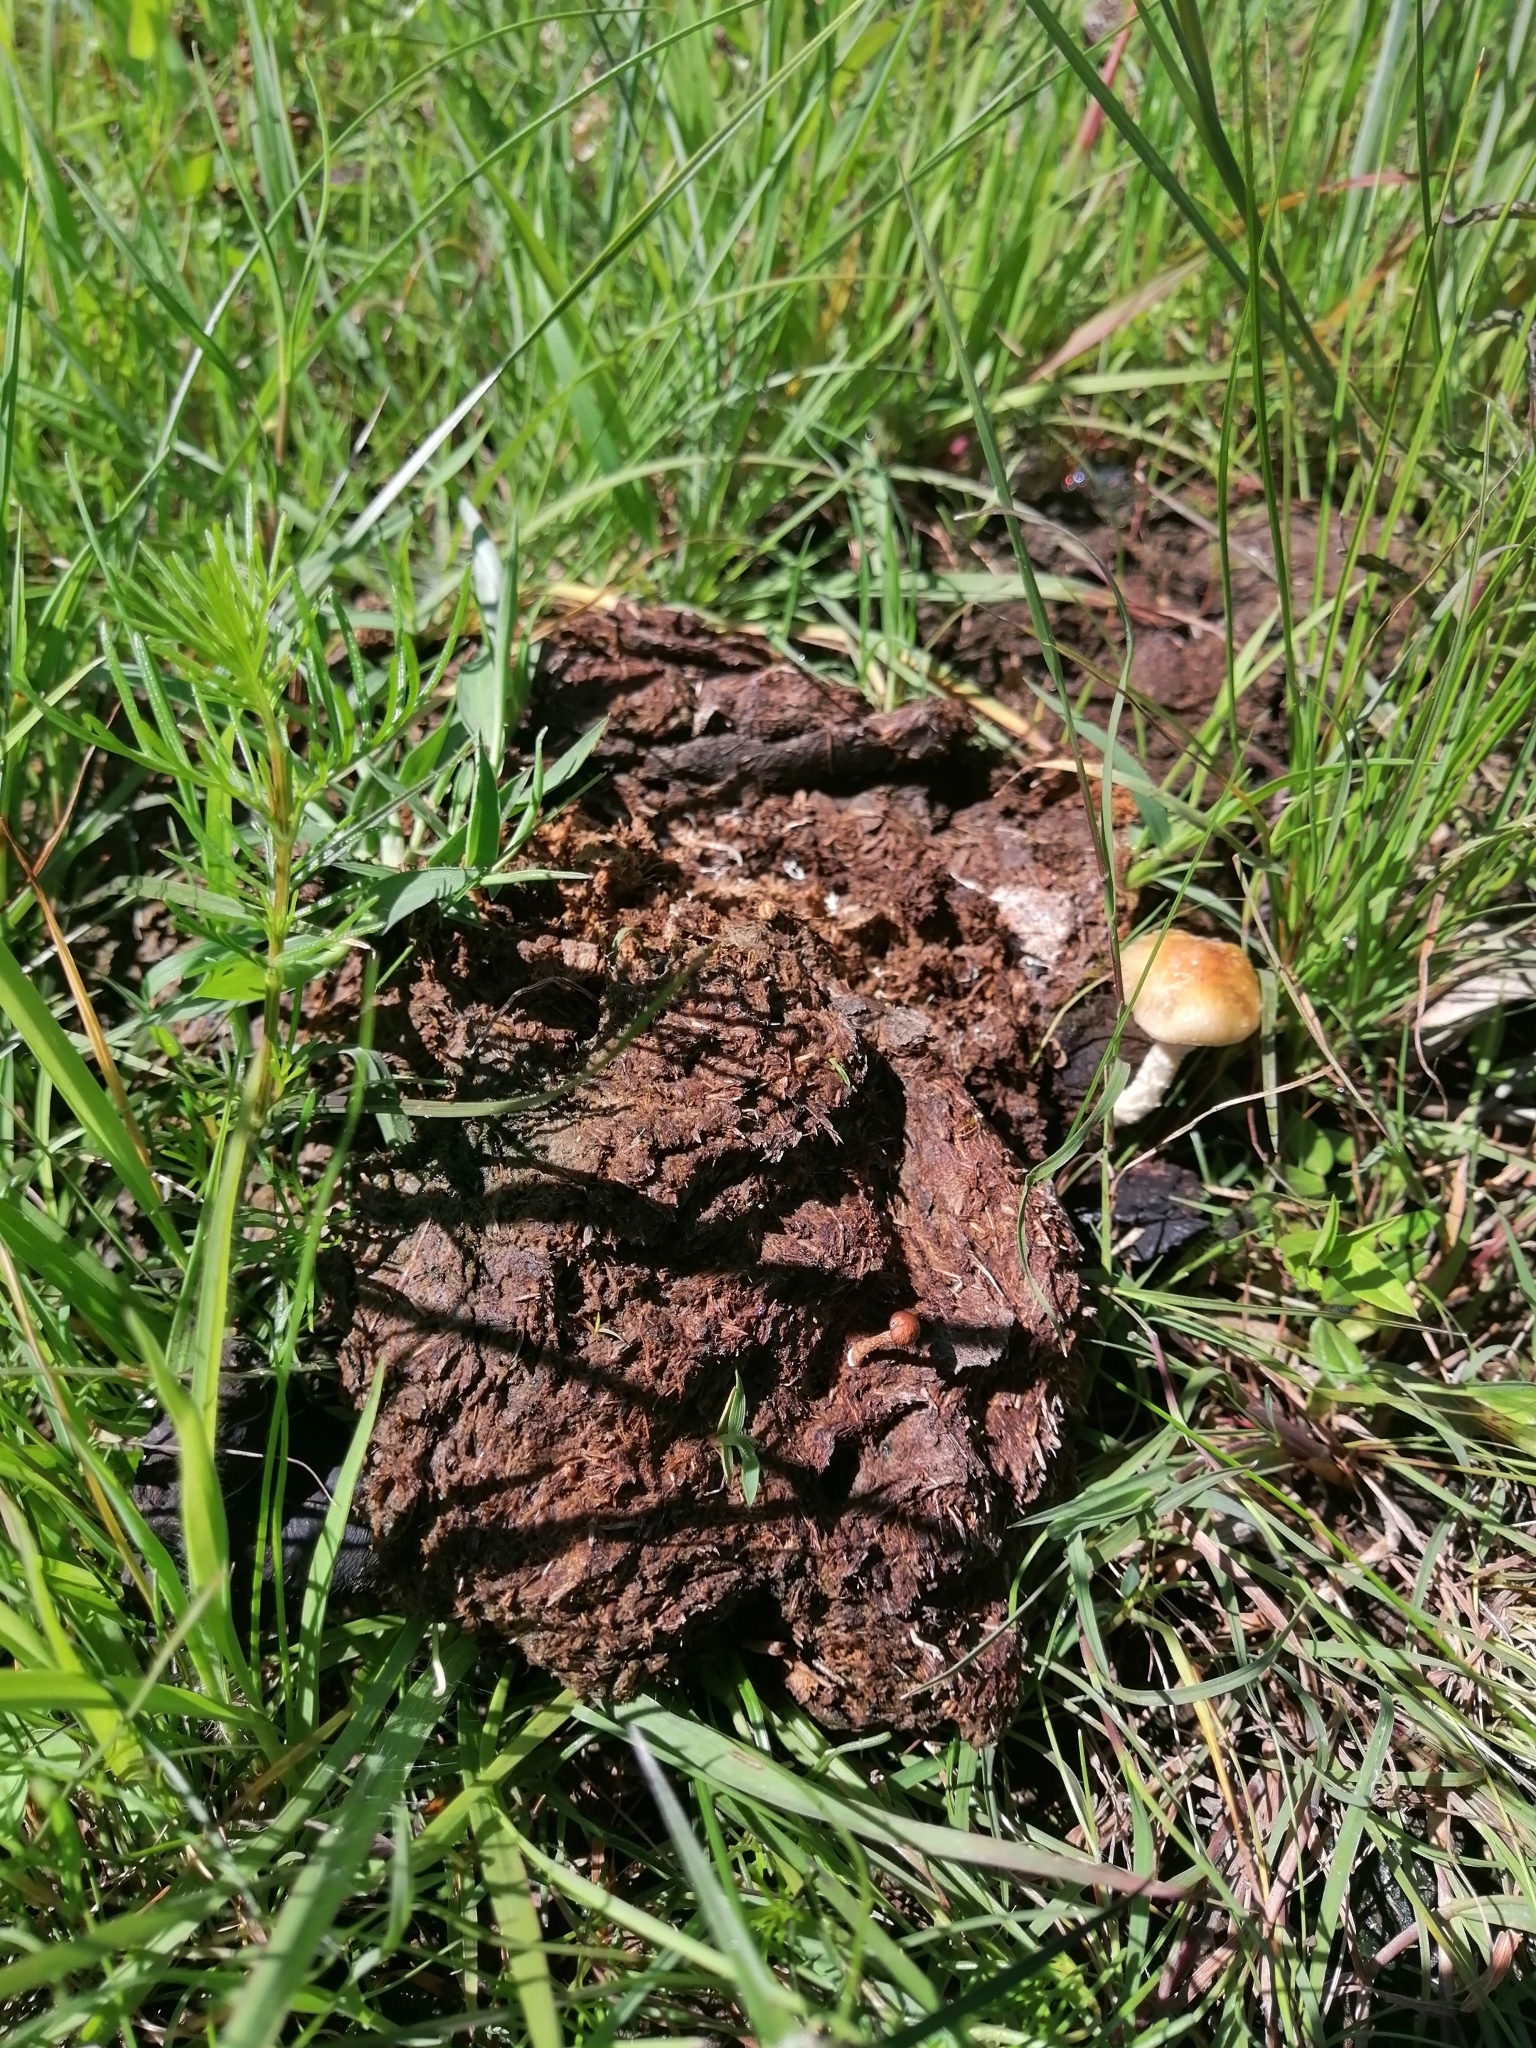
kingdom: Fungi
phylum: Basidiomycota
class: Agaricomycetes
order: Agaricales
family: Hymenogastraceae
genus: Psilocybe
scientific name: Psilocybe cubensis
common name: Golden brownie
